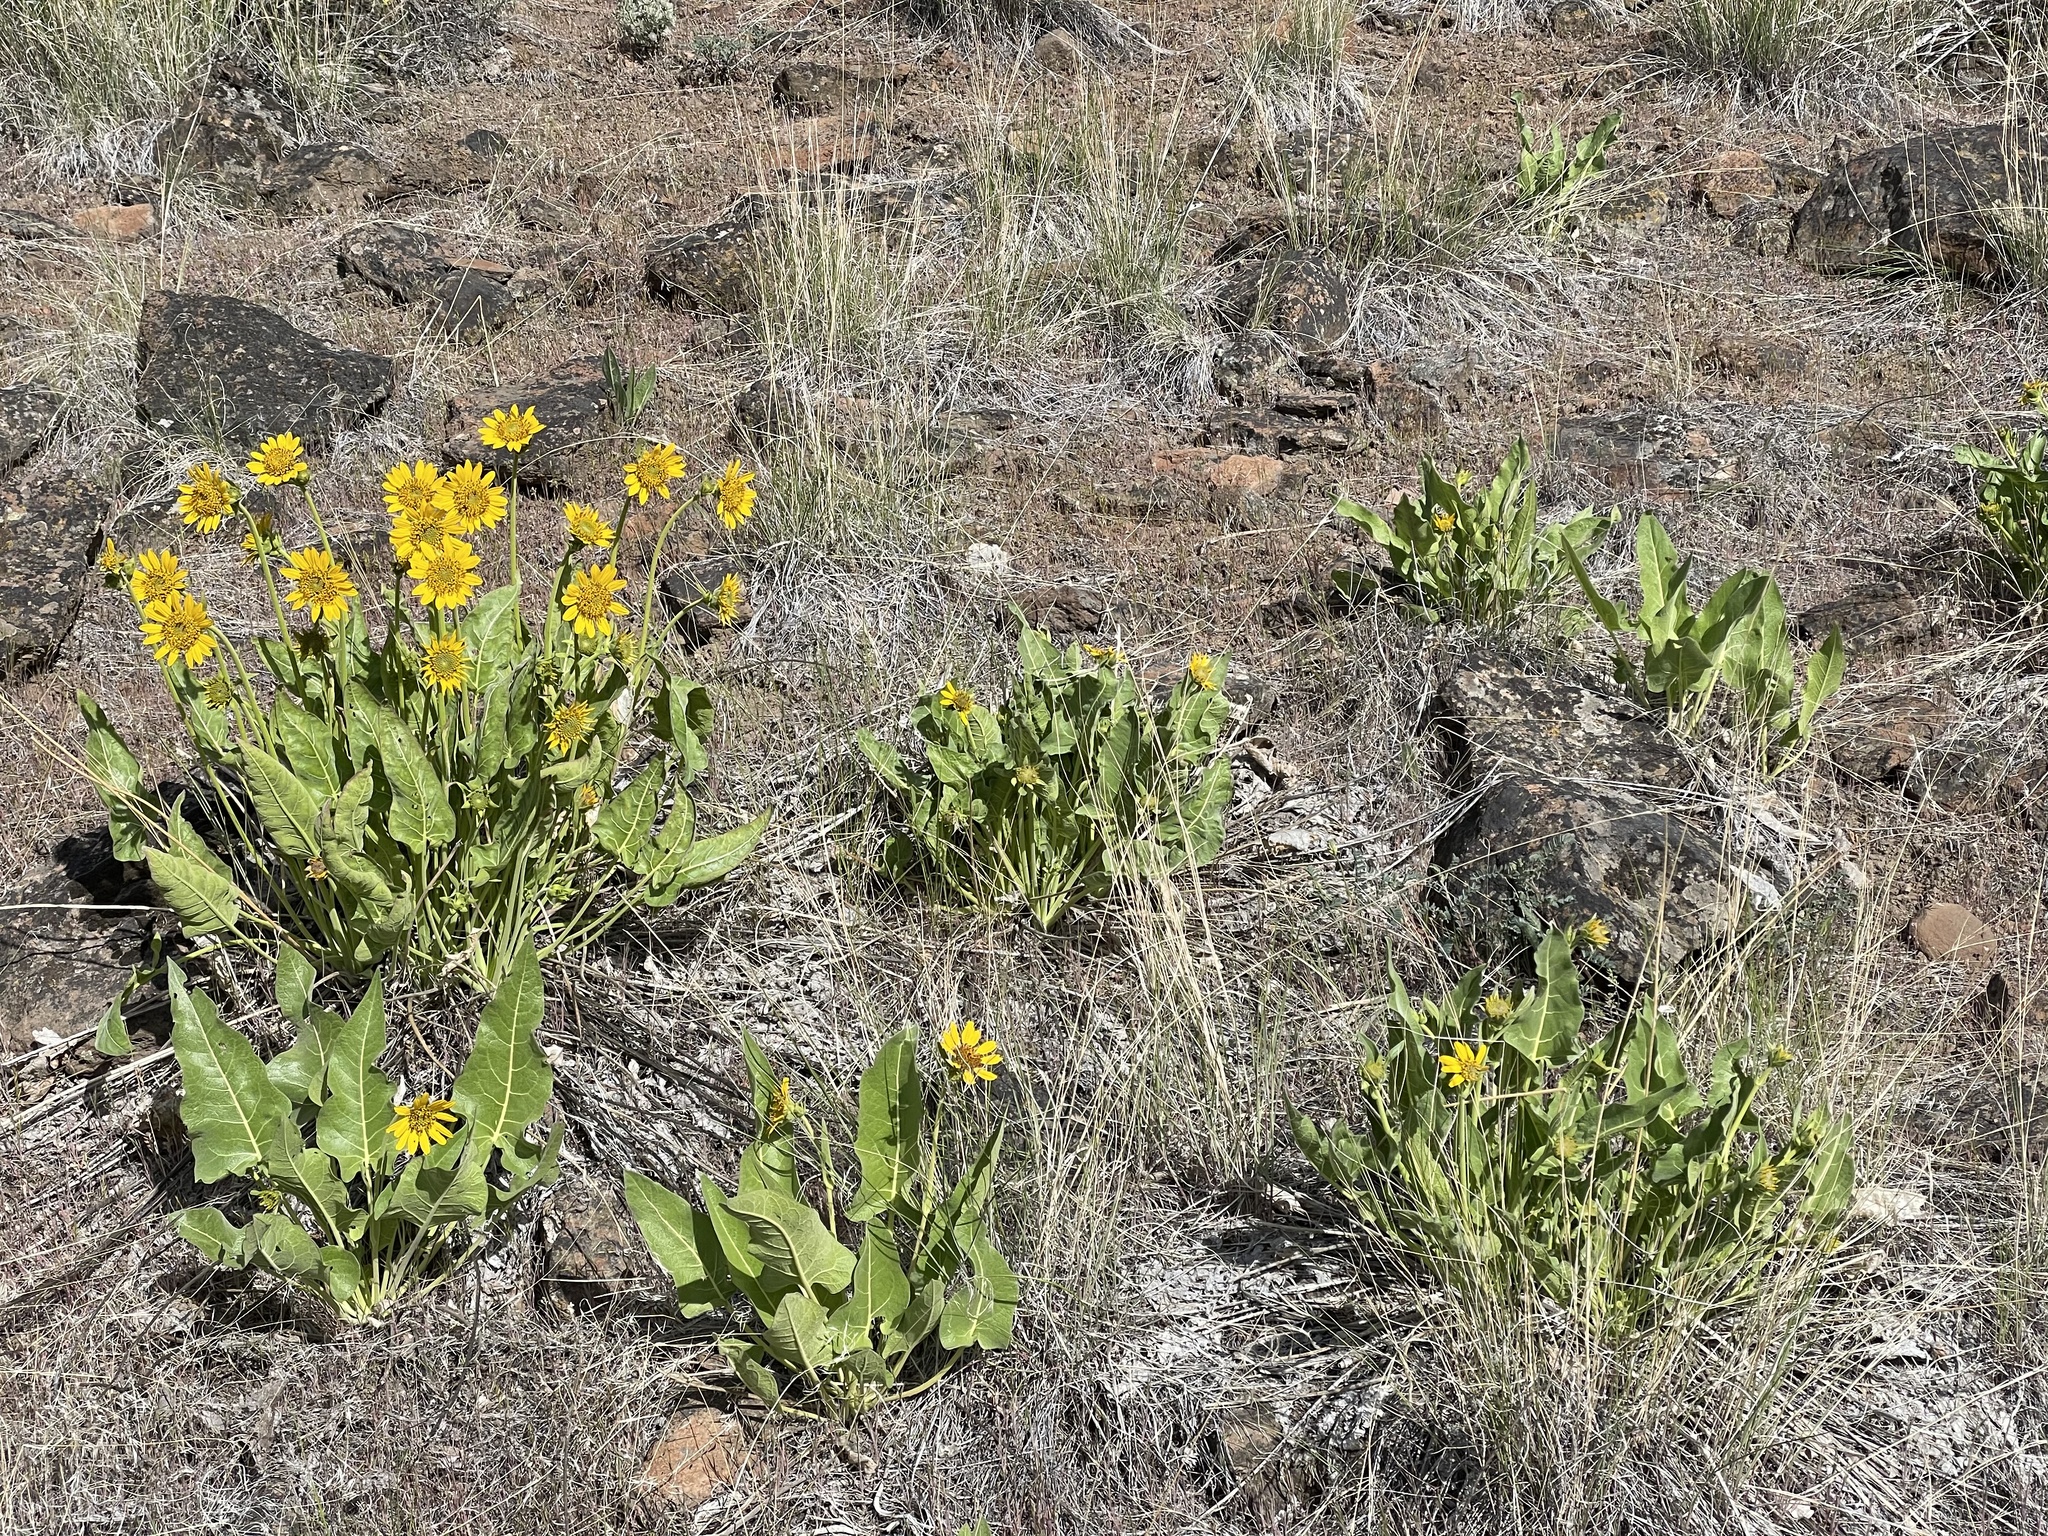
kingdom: Plantae
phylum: Tracheophyta
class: Magnoliopsida
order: Asterales
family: Asteraceae
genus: Balsamorhiza
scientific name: Balsamorhiza careyana
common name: Carey's balsamroot
